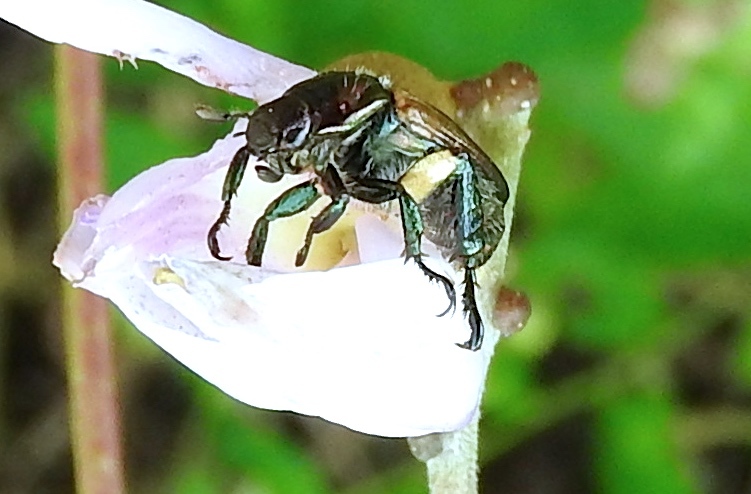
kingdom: Animalia
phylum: Arthropoda
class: Insecta
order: Coleoptera
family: Scarabaeidae
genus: Strigoderma
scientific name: Strigoderma
